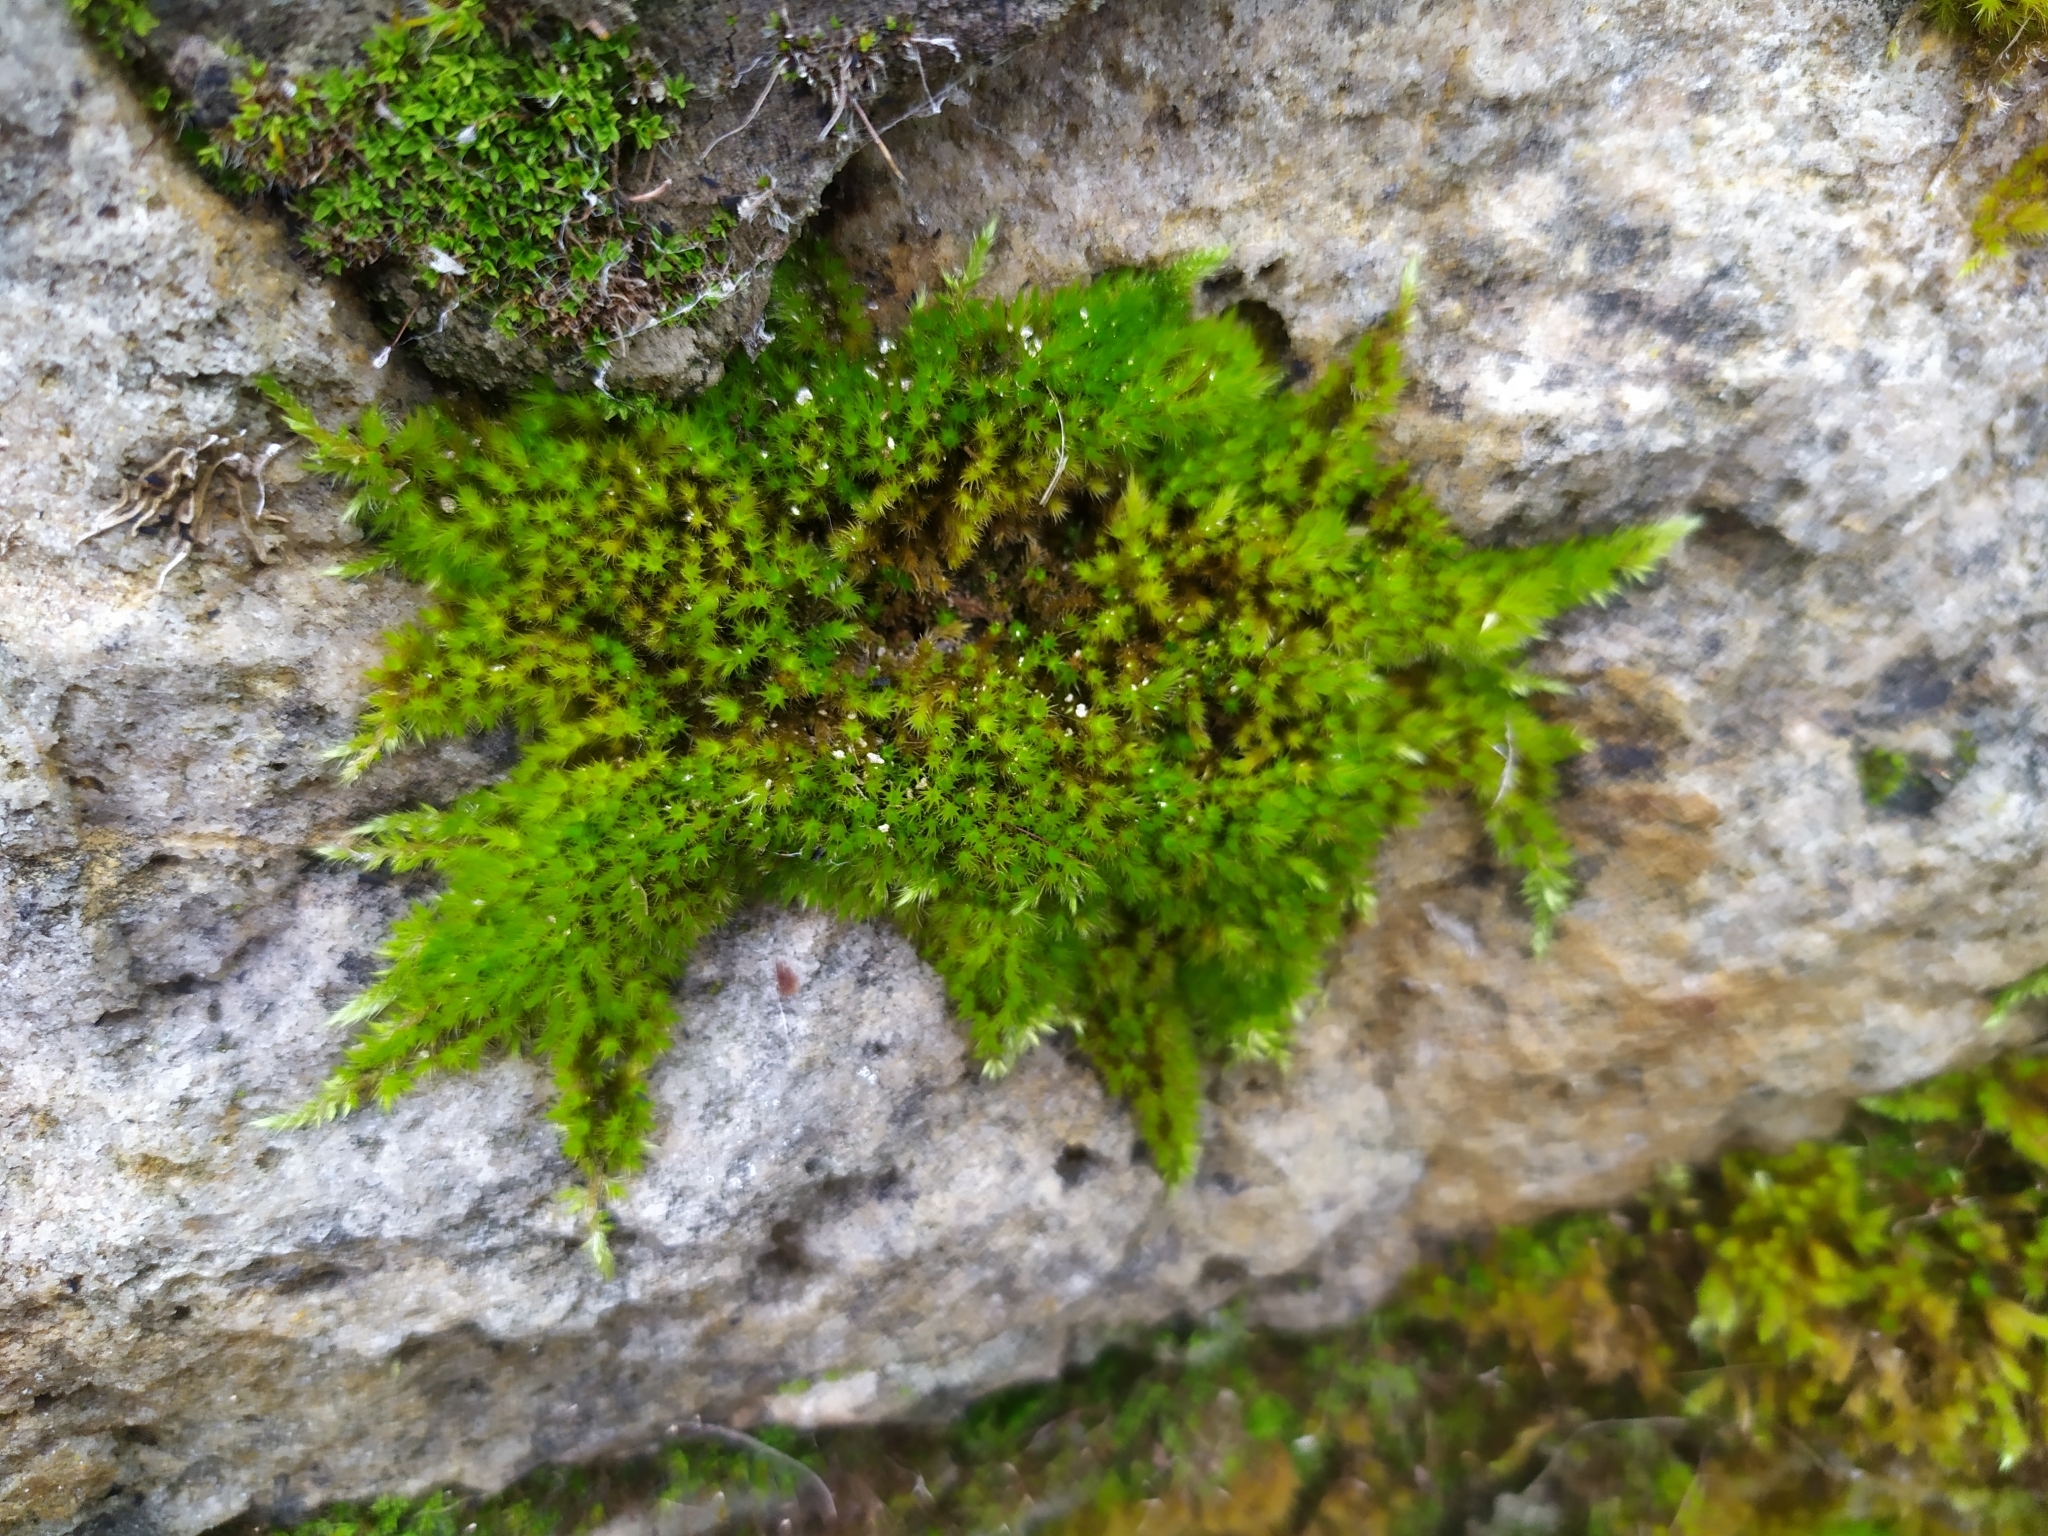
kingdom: Plantae
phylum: Bryophyta
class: Bryopsida
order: Hypnales
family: Brachytheciaceae
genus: Homalothecium
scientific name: Homalothecium sericeum
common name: Silky wall feather-moss
